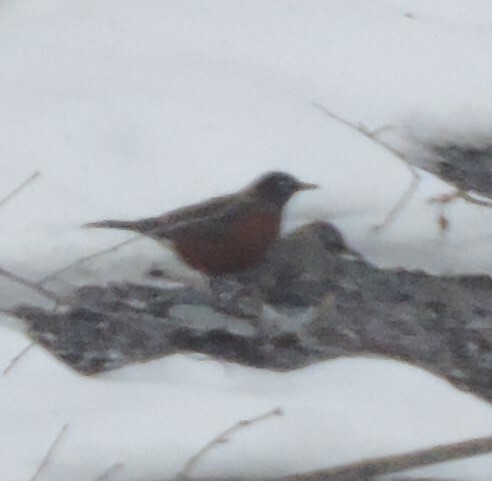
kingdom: Animalia
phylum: Chordata
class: Aves
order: Passeriformes
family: Turdidae
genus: Turdus
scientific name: Turdus migratorius
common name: American robin
